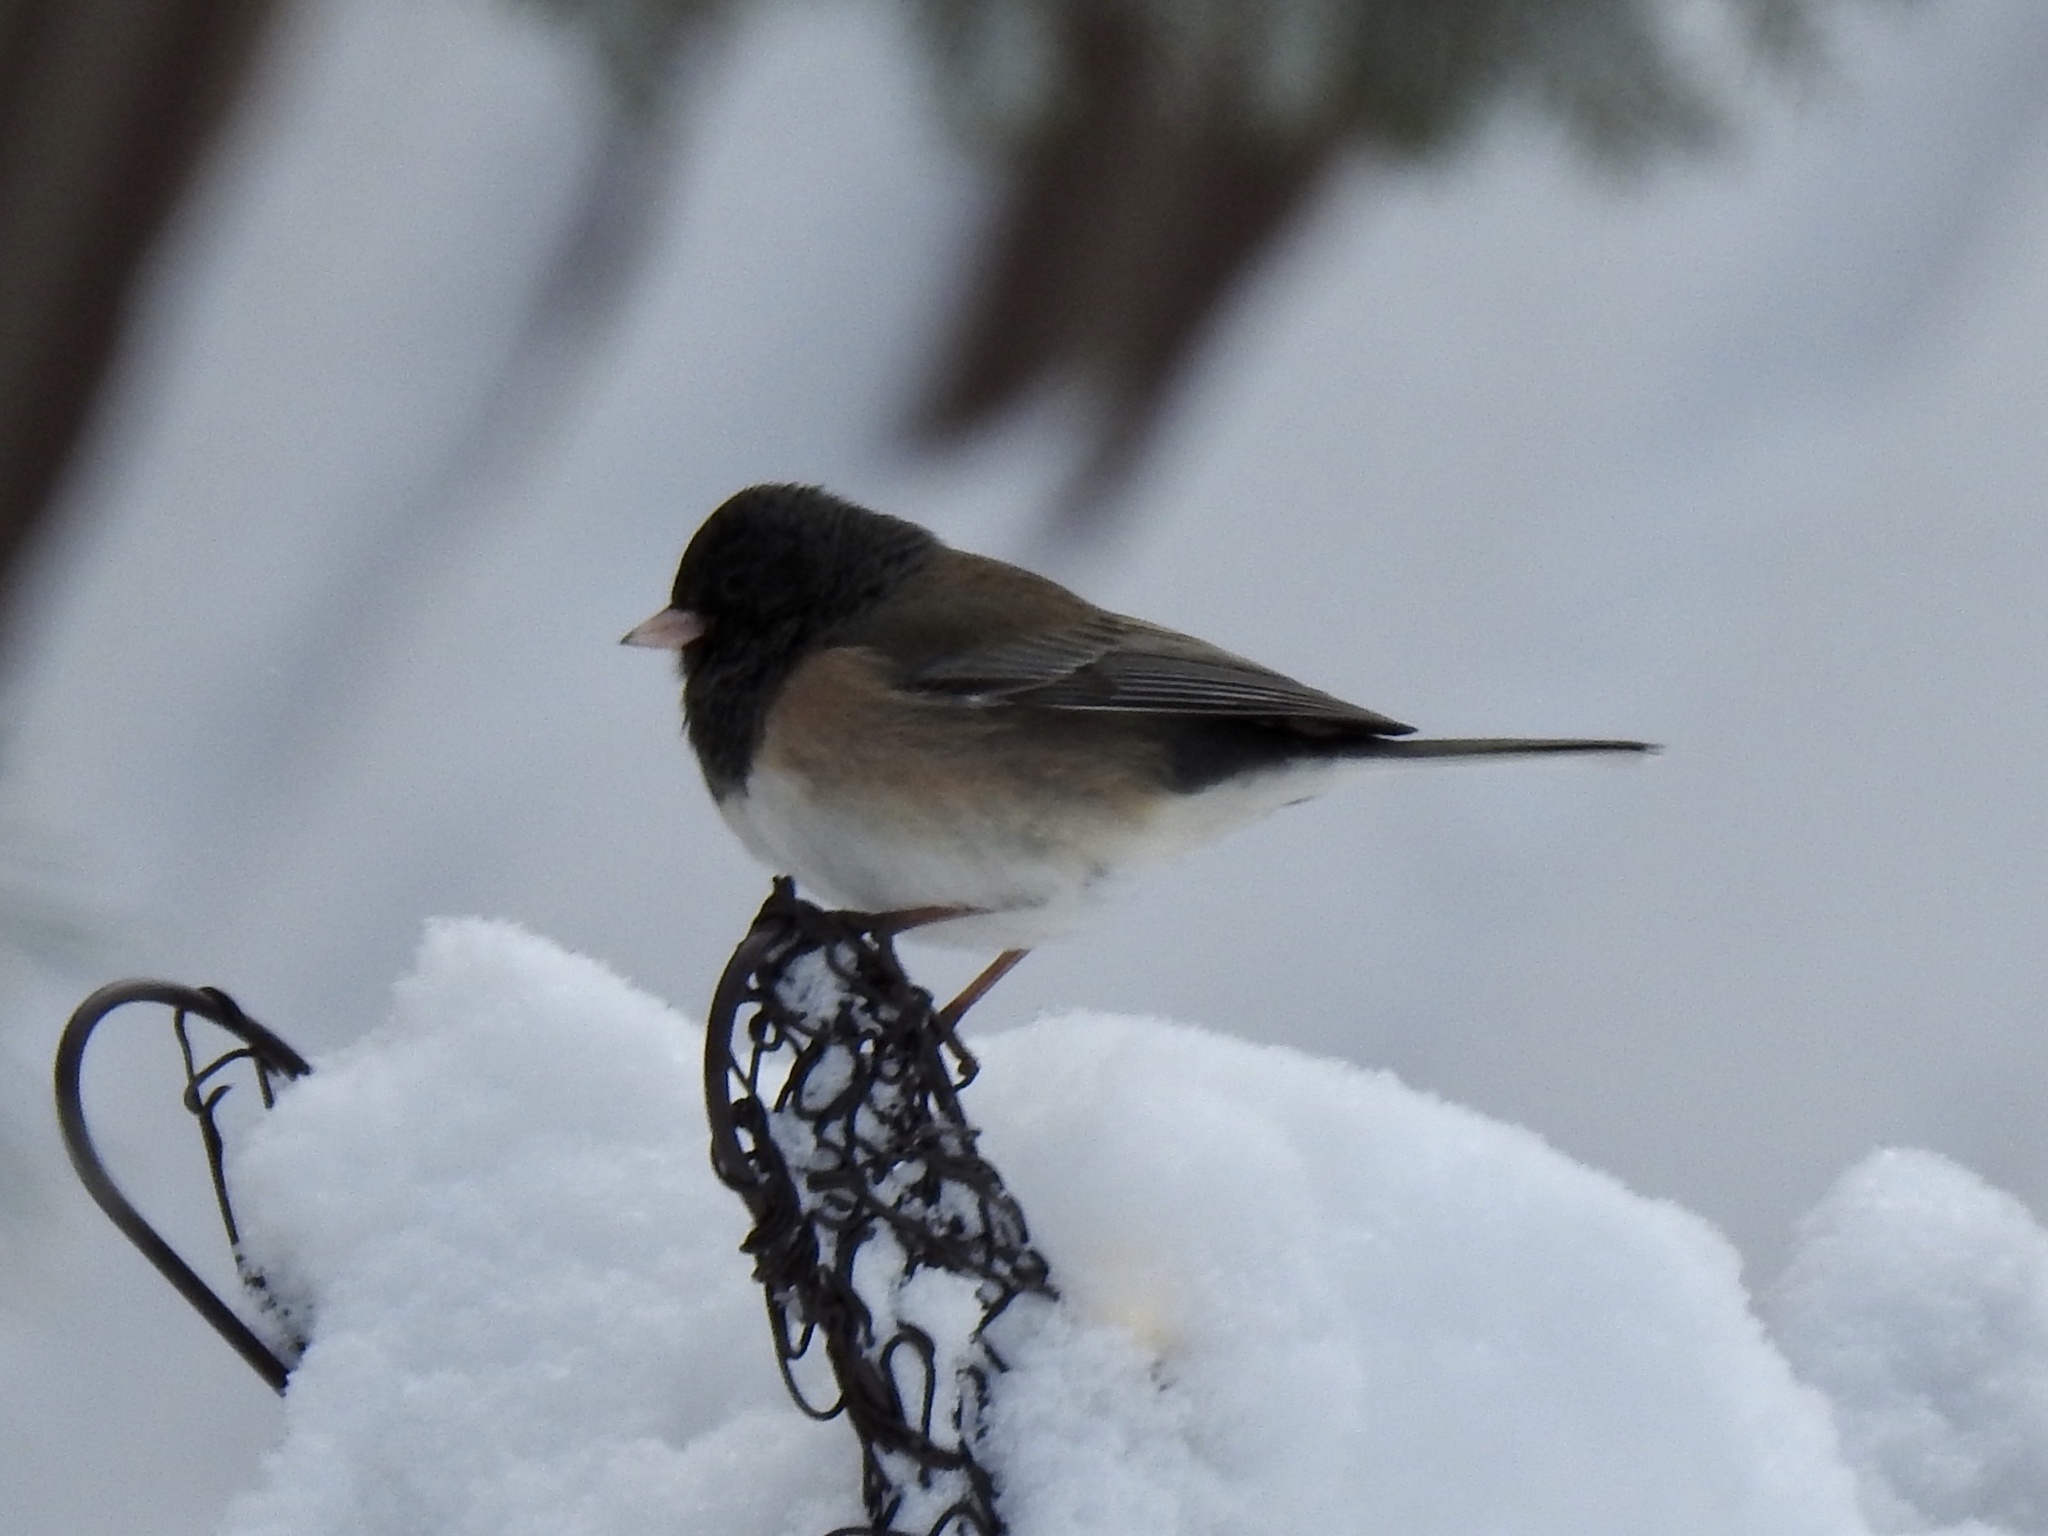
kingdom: Animalia
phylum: Chordata
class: Aves
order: Passeriformes
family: Passerellidae
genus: Junco
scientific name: Junco hyemalis
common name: Dark-eyed junco
